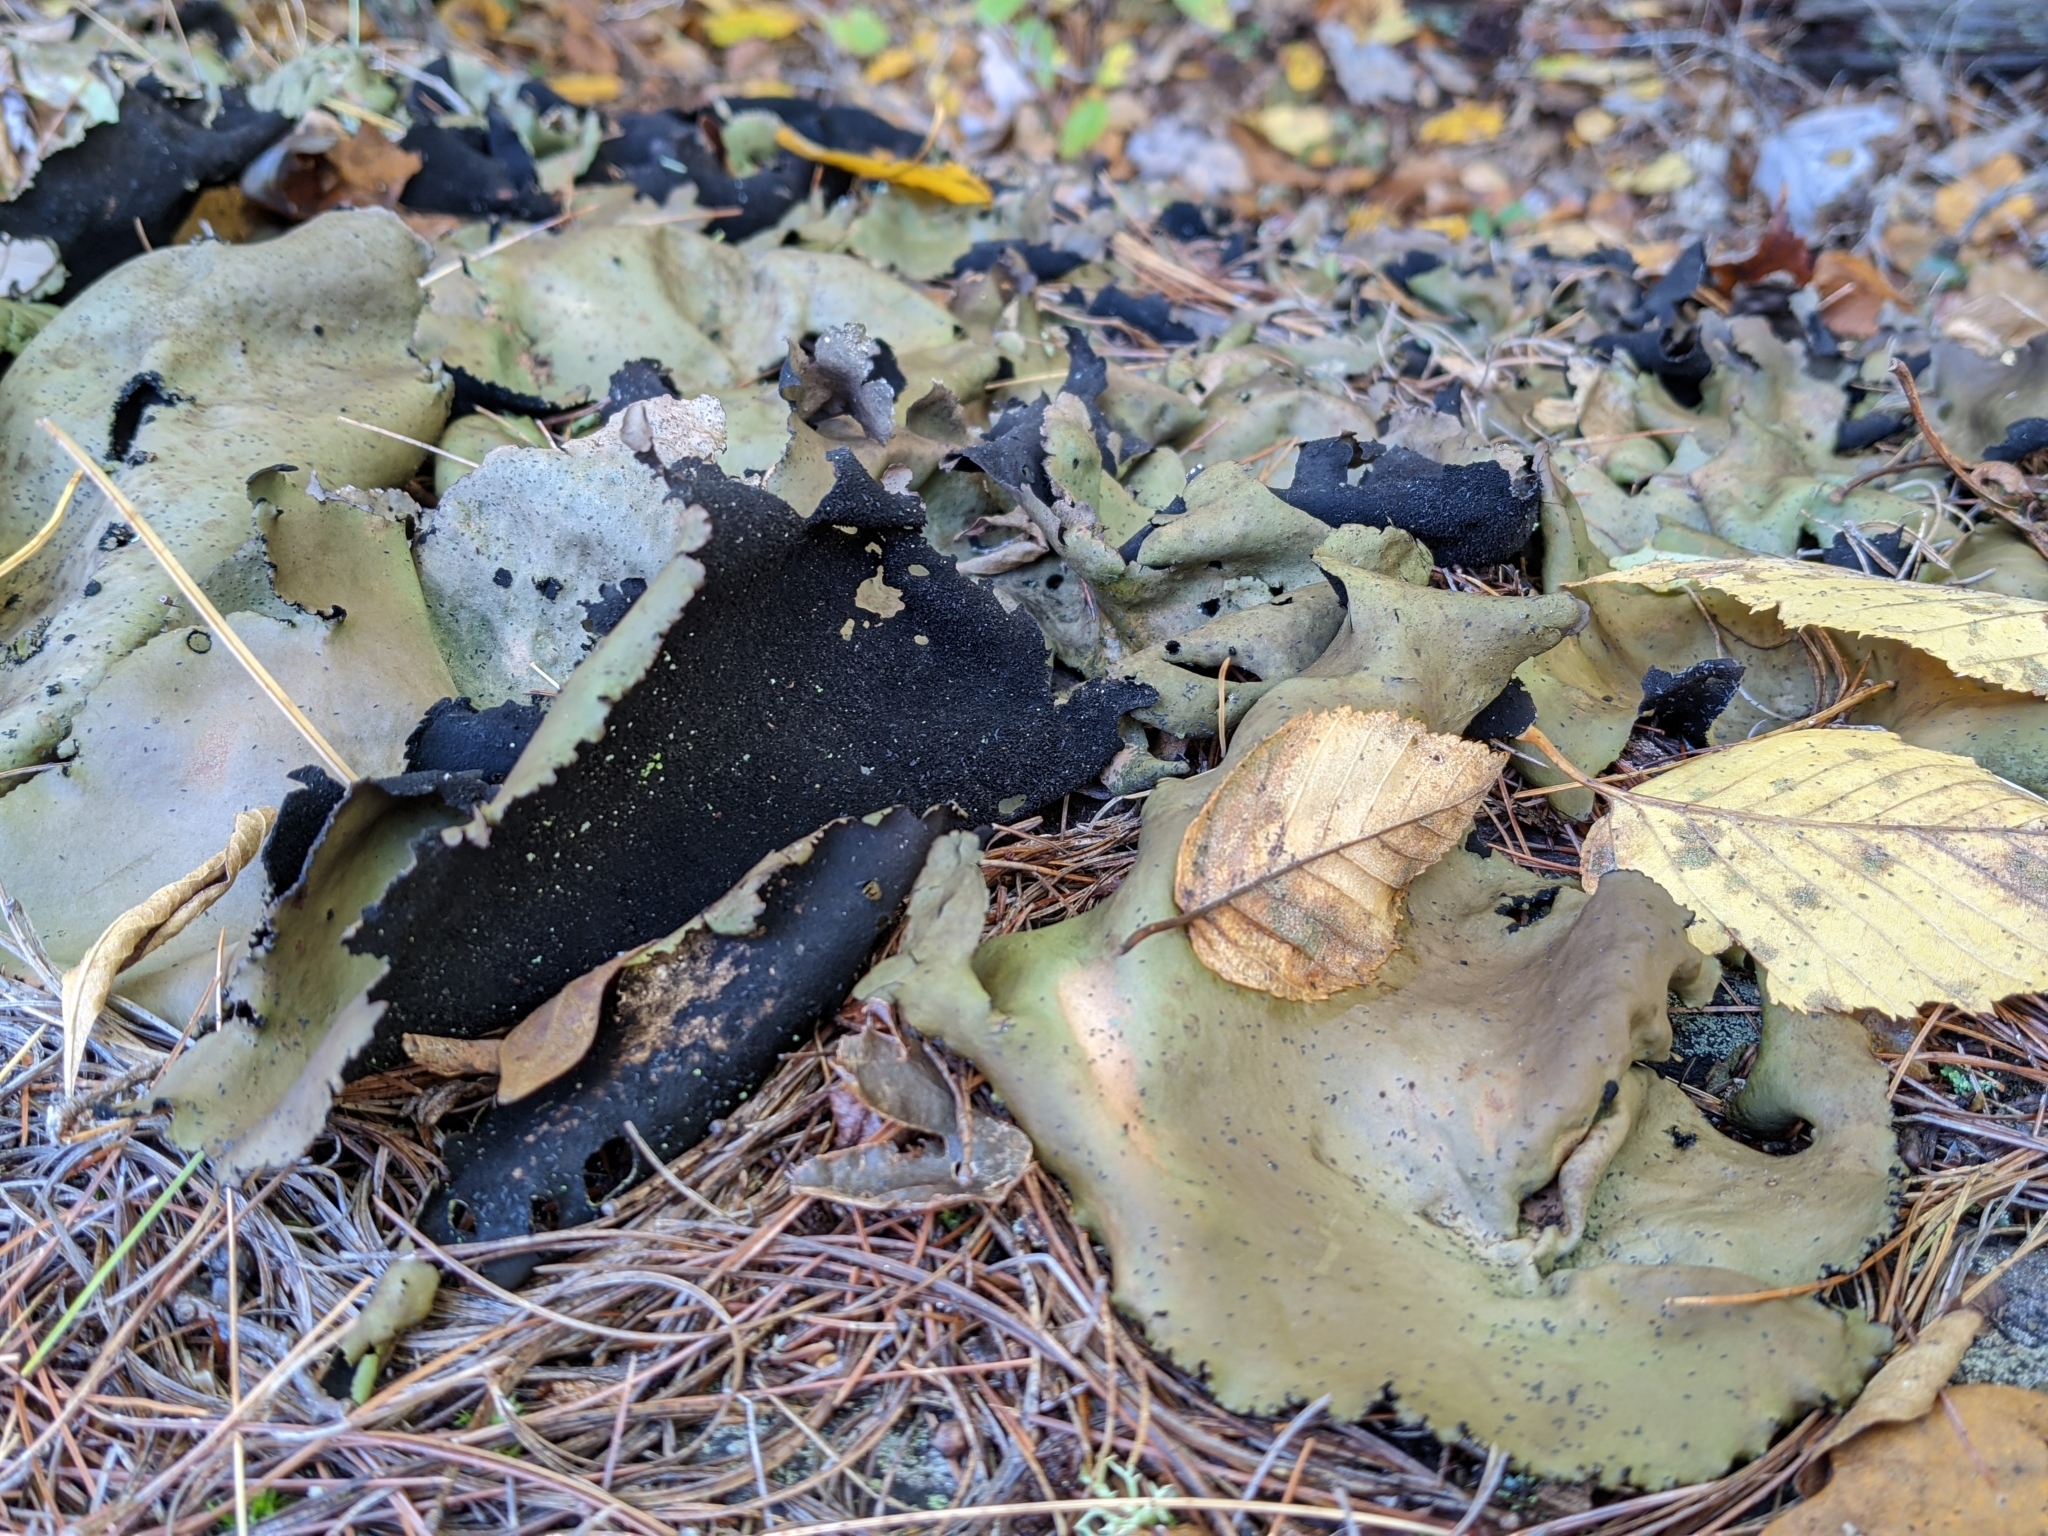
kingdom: Fungi
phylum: Ascomycota
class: Lecanoromycetes
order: Umbilicariales
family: Umbilicariaceae
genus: Umbilicaria
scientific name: Umbilicaria mammulata
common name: Smooth rock tripe
